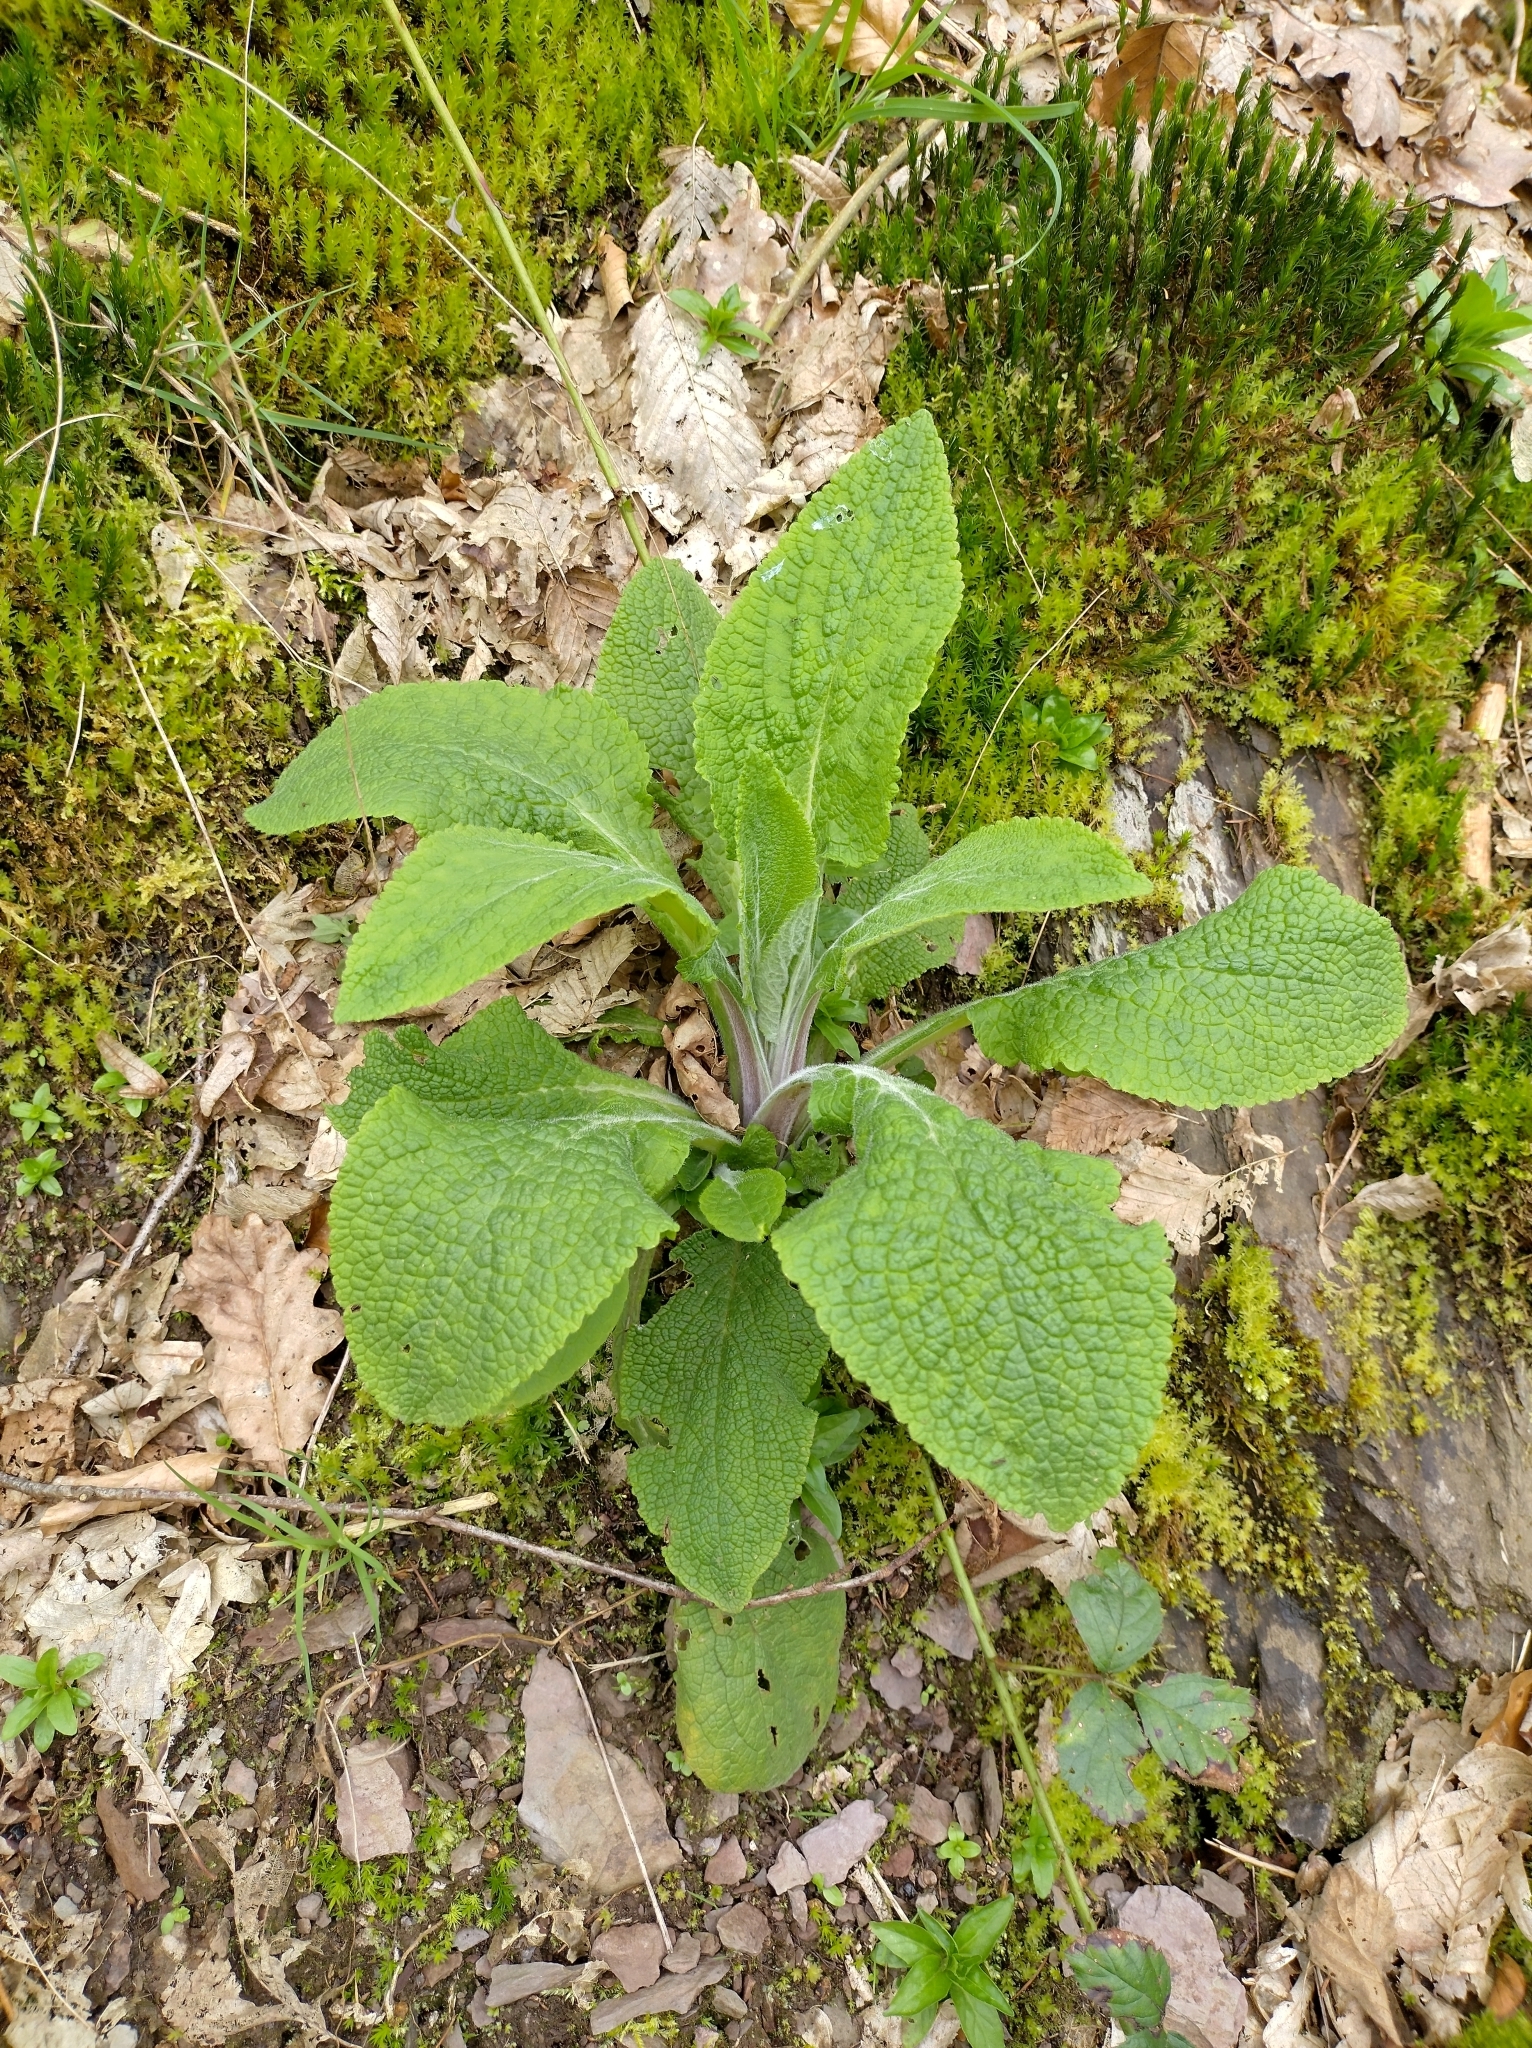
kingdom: Plantae
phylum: Tracheophyta
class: Magnoliopsida
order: Lamiales
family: Plantaginaceae
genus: Digitalis
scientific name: Digitalis purpurea
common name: Foxglove
